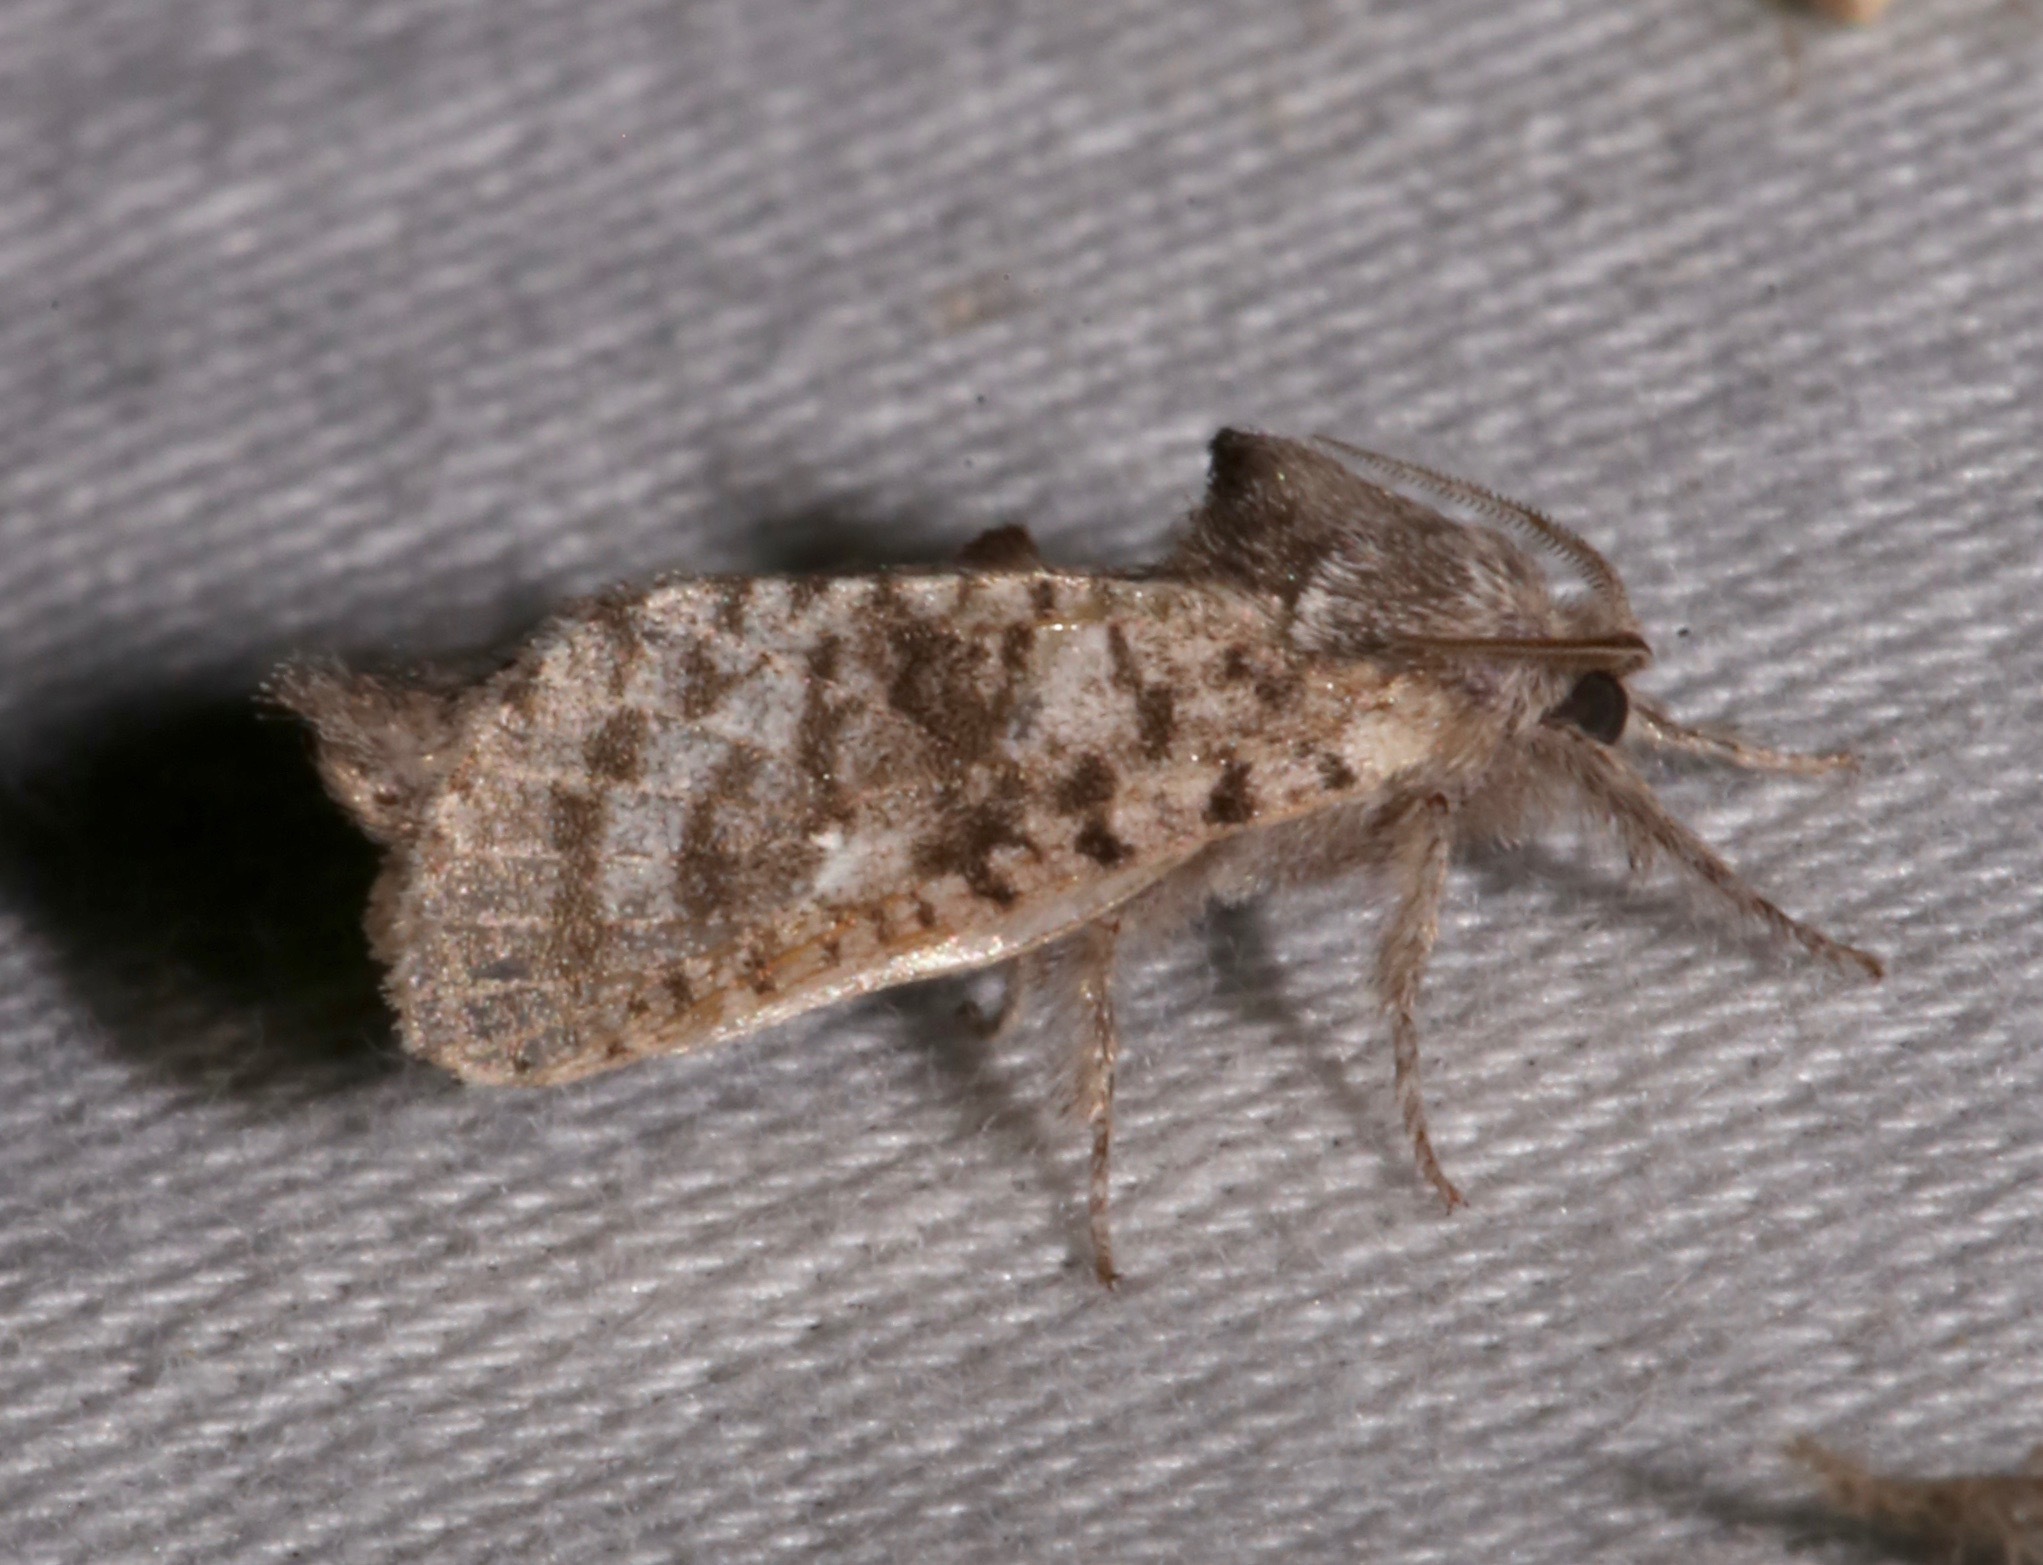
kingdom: Animalia
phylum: Arthropoda
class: Insecta
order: Lepidoptera
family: Cossidae
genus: Givira
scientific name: Givira francesca
